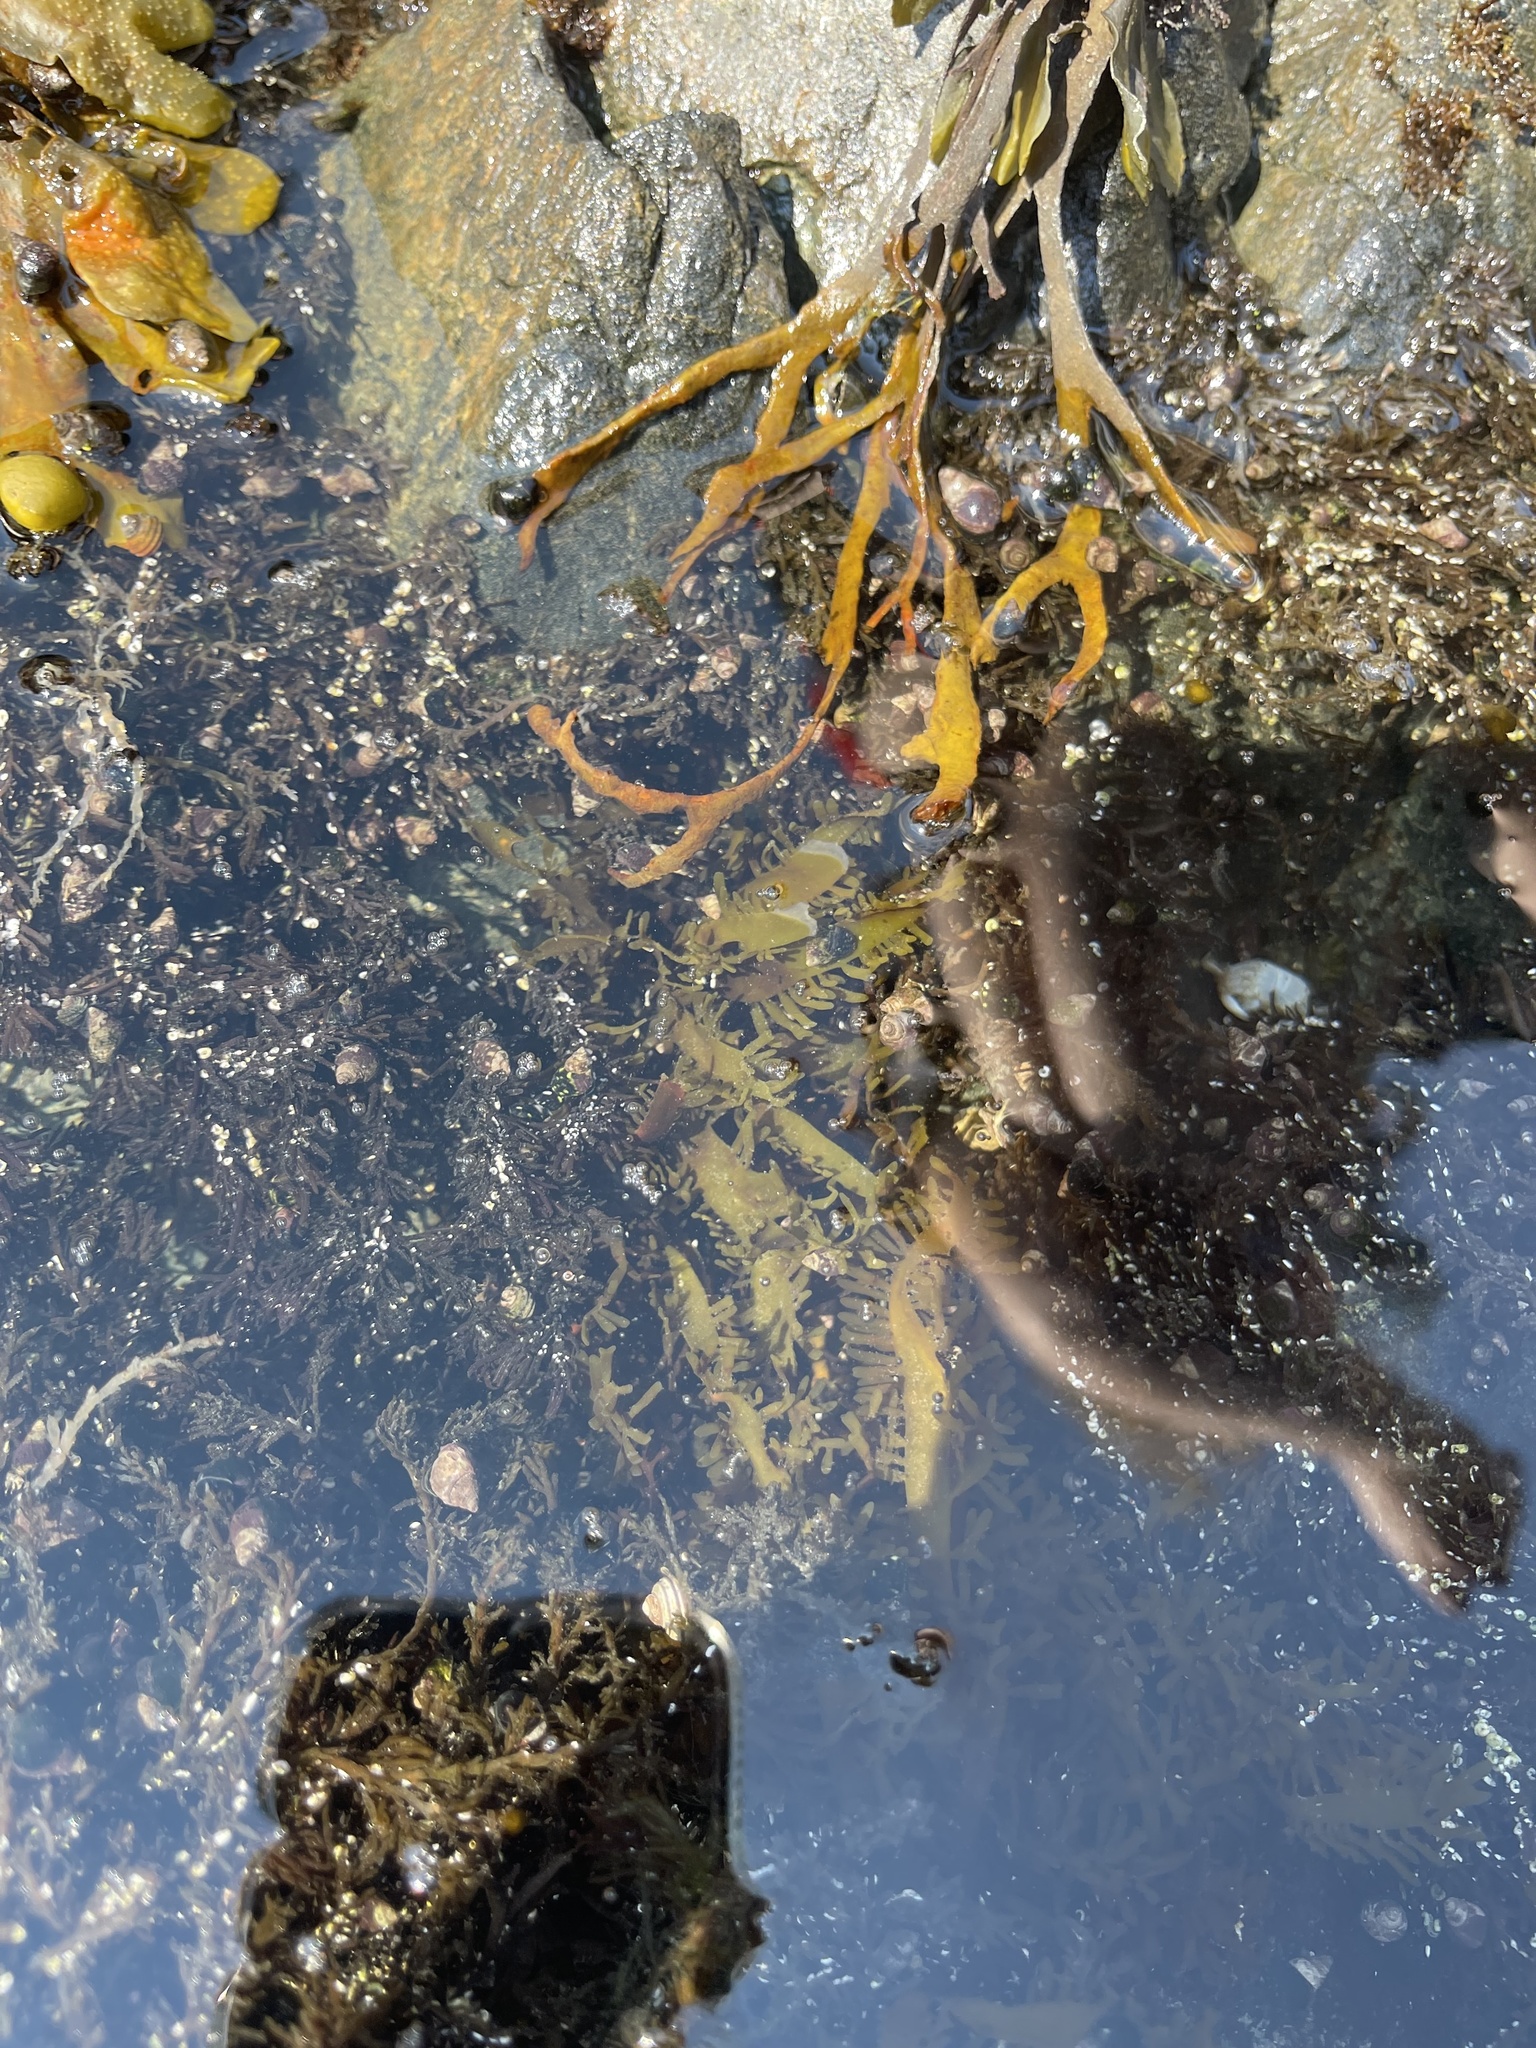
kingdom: Plantae
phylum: Rhodophyta
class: Florideophyceae
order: Halymeniales
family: Halymeniaceae
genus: Grateloupia
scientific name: Grateloupia Prionitis lanceolata
